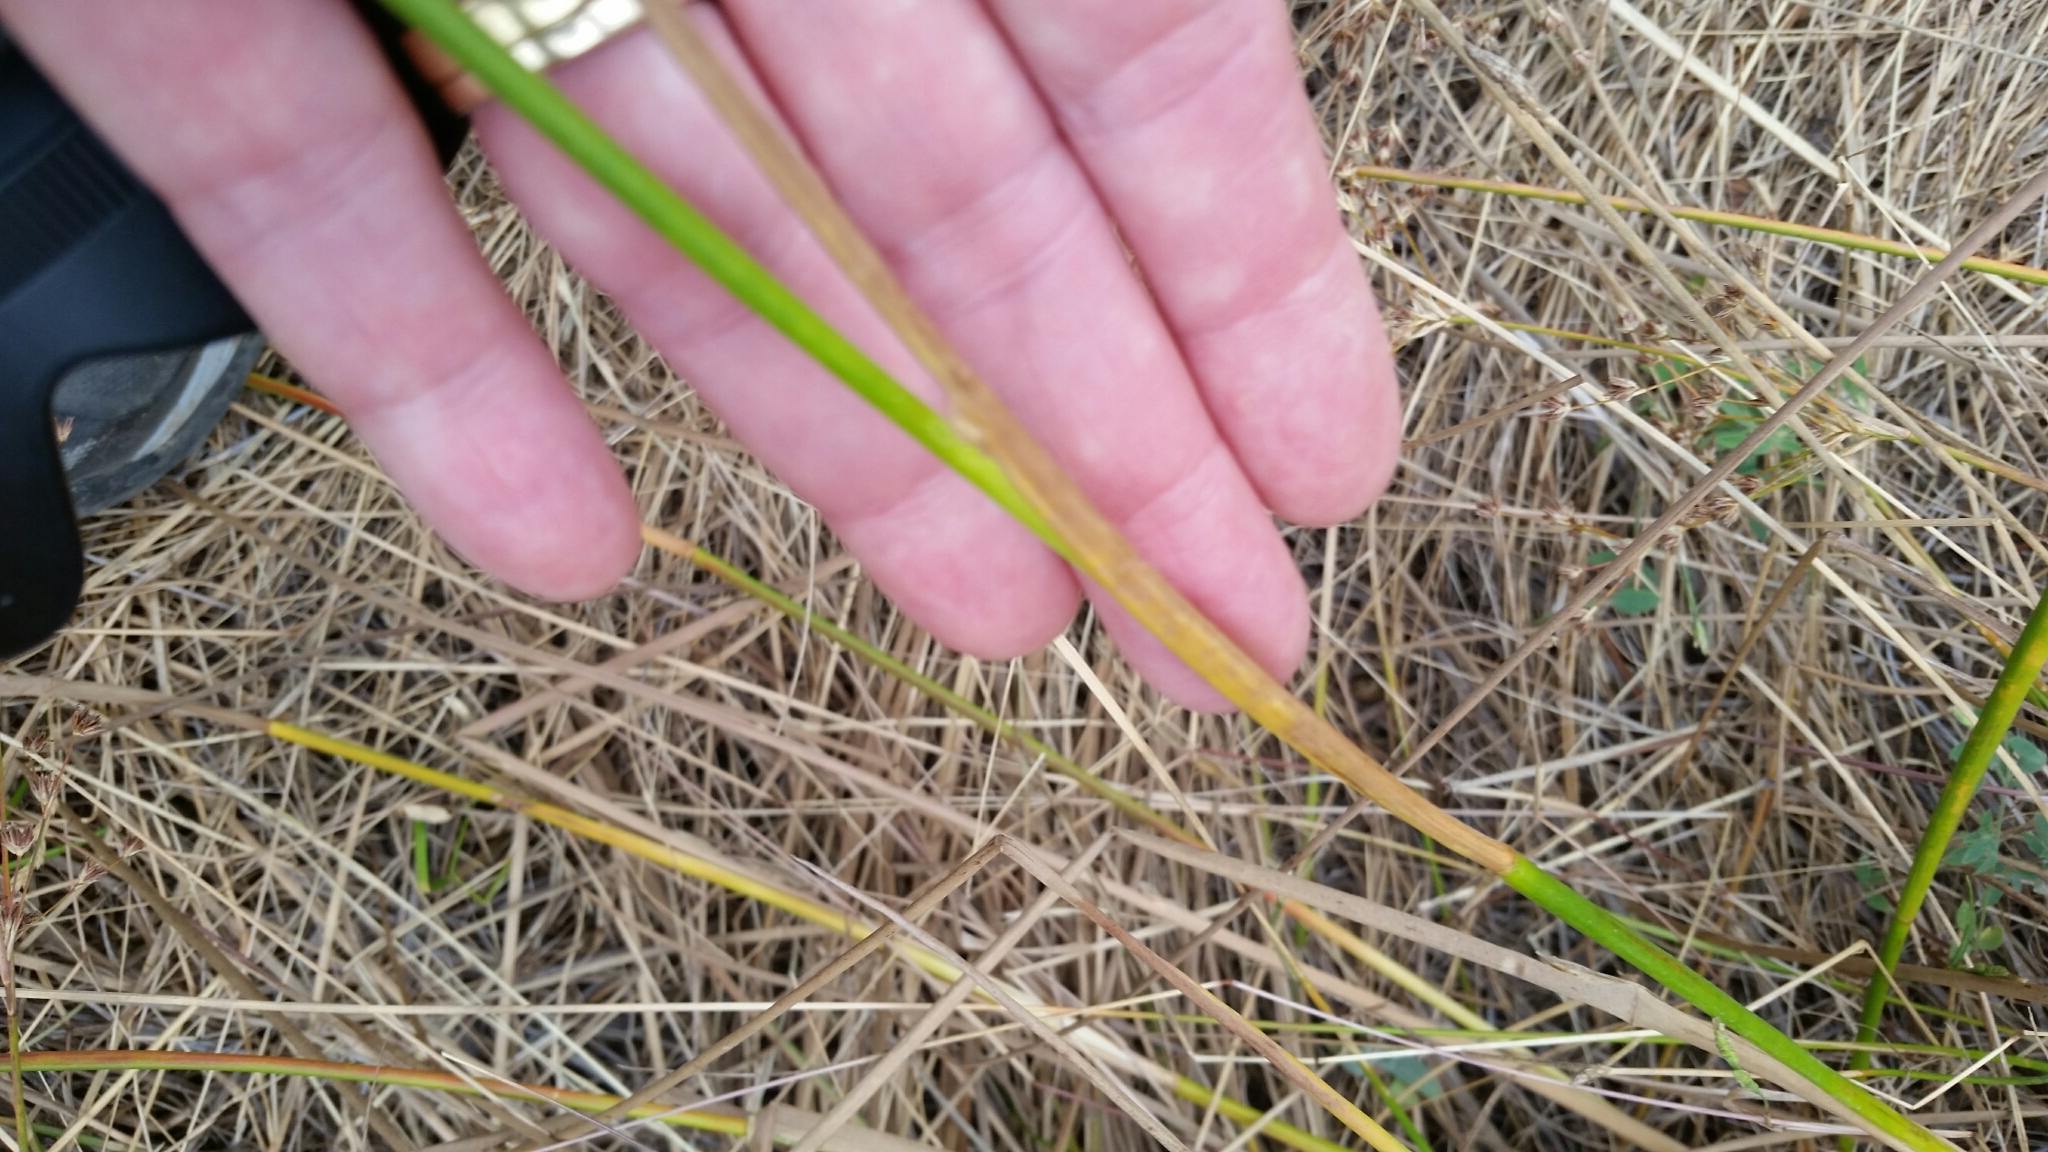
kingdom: Plantae
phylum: Tracheophyta
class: Liliopsida
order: Poales
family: Juncaceae
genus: Juncus
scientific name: Juncus dubius
